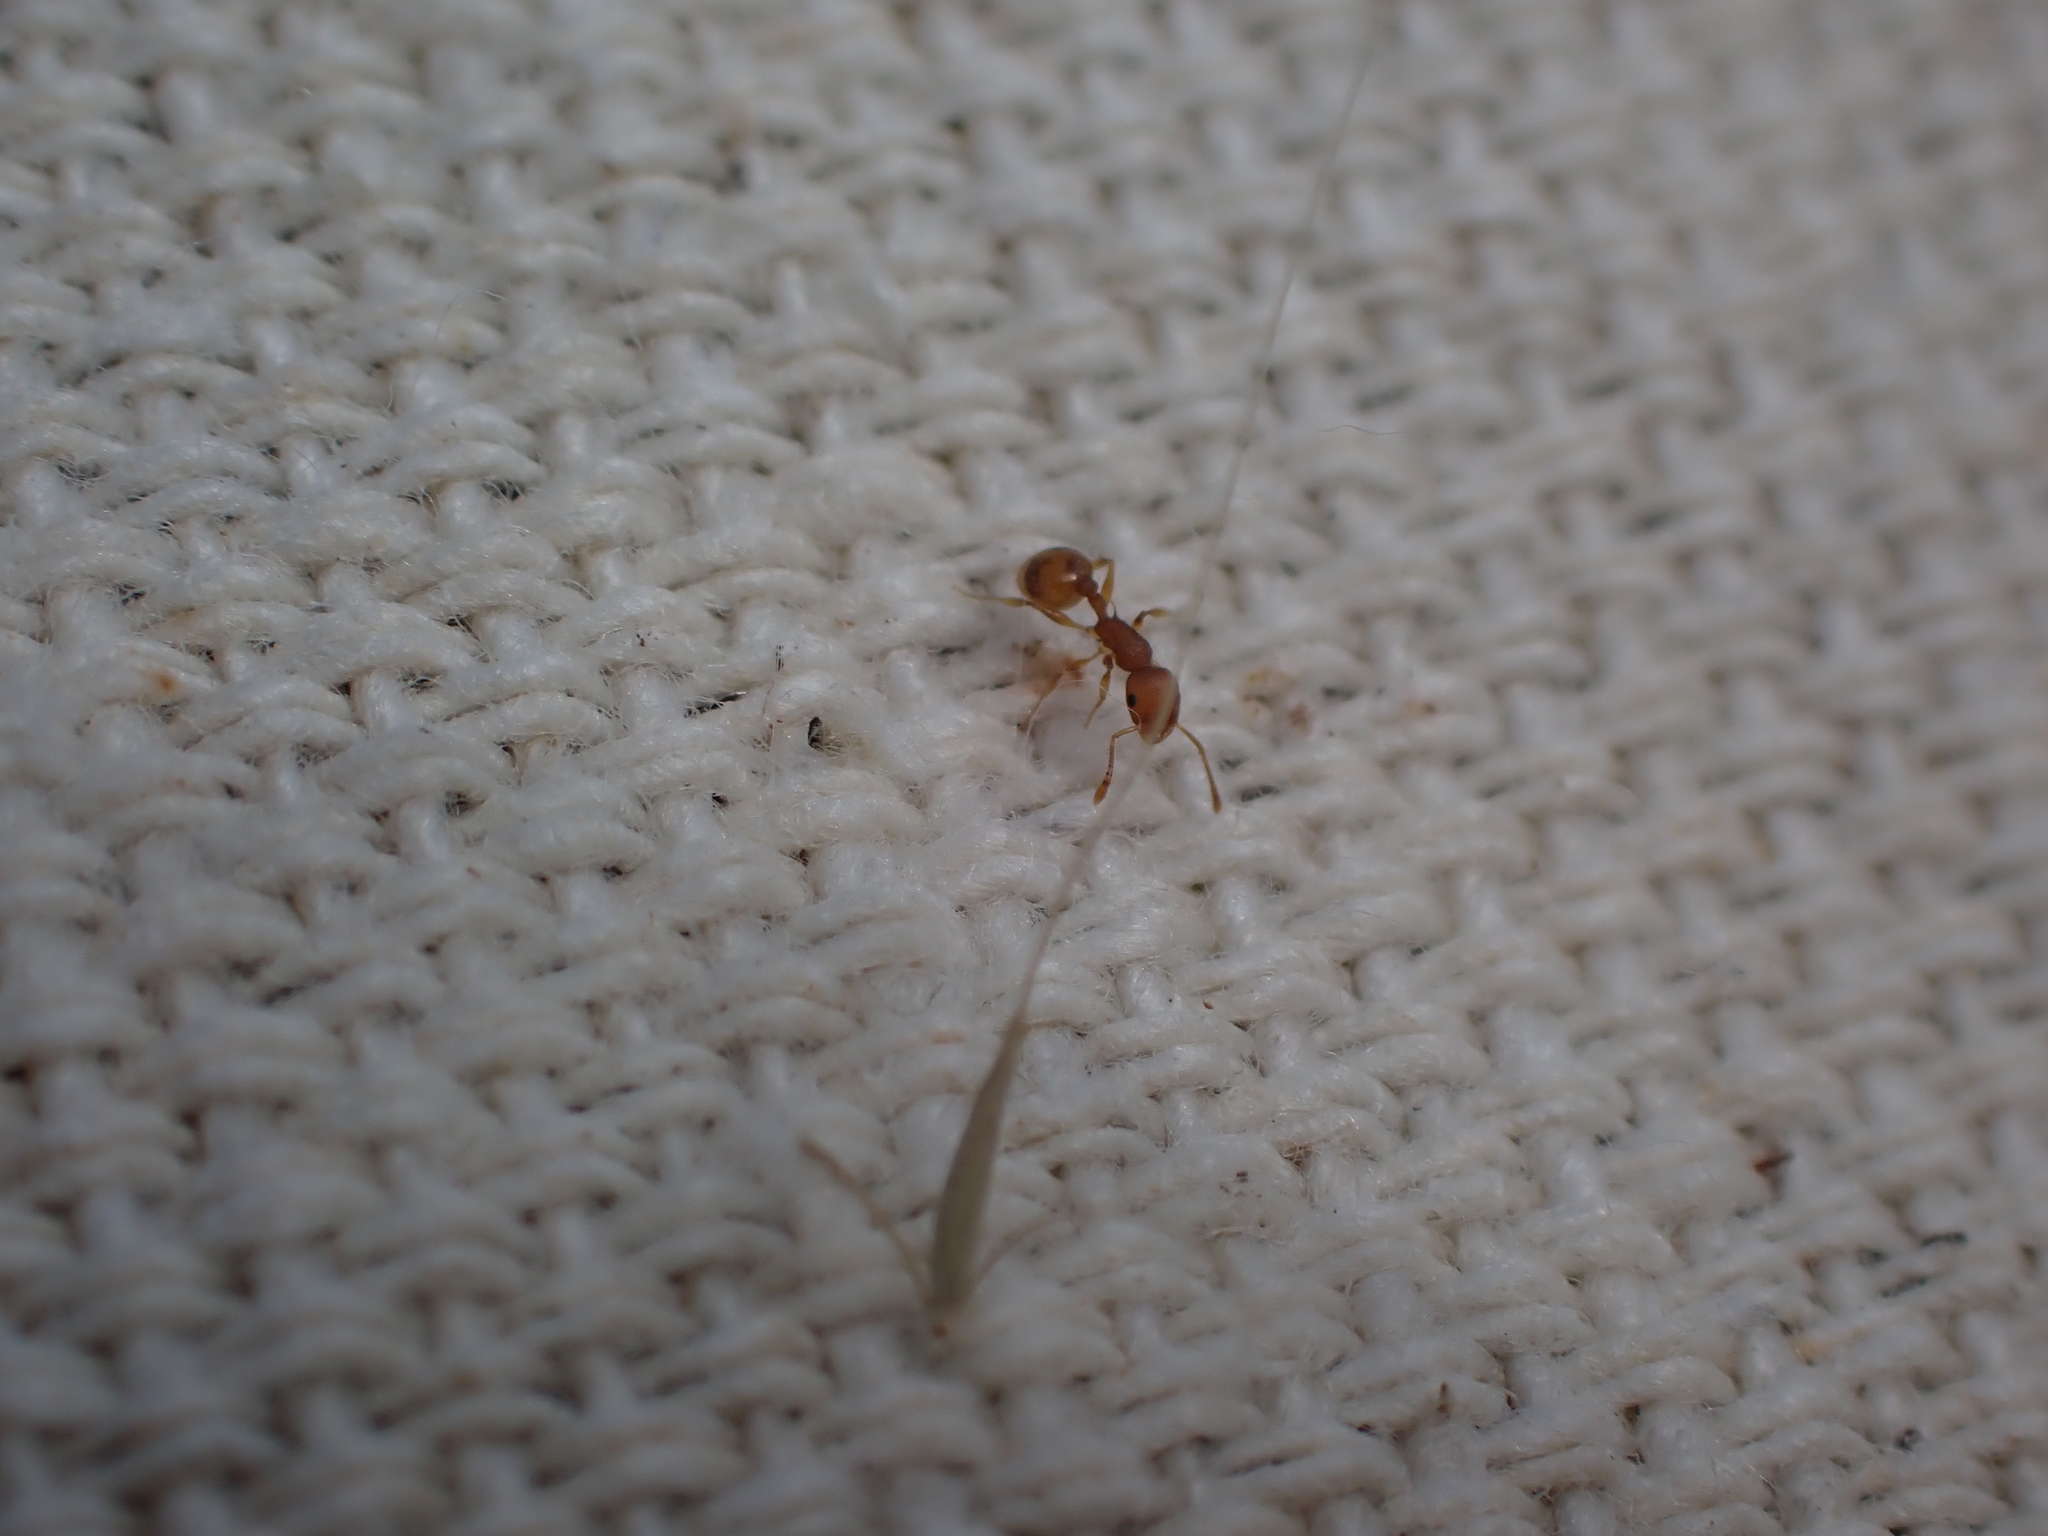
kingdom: Animalia
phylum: Arthropoda
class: Insecta
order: Hymenoptera
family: Formicidae
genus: Temnothorax
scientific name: Temnothorax curvispinosus
